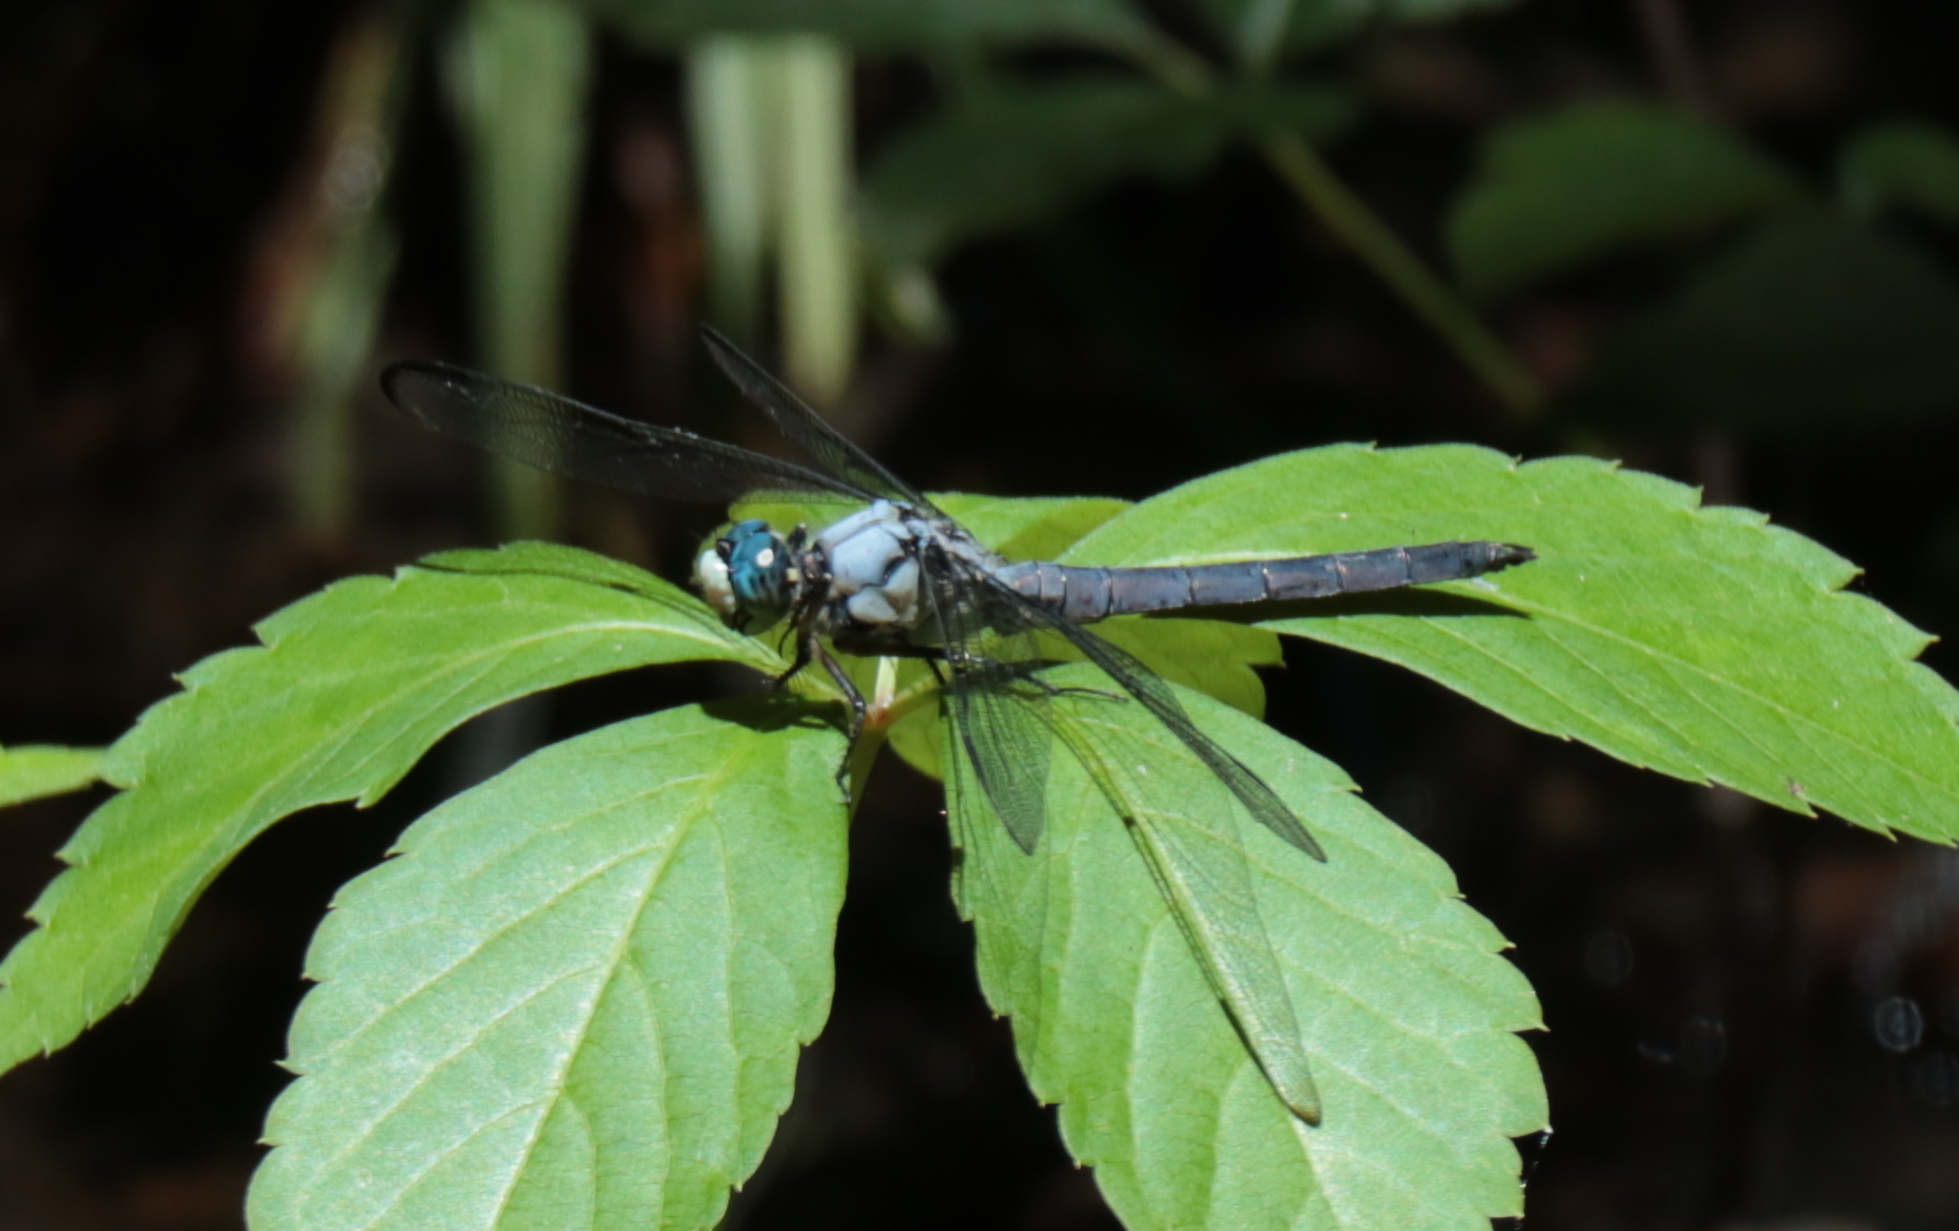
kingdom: Animalia
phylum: Arthropoda
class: Insecta
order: Odonata
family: Libellulidae
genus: Libellula
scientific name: Libellula vibrans
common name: Great blue skimmer
